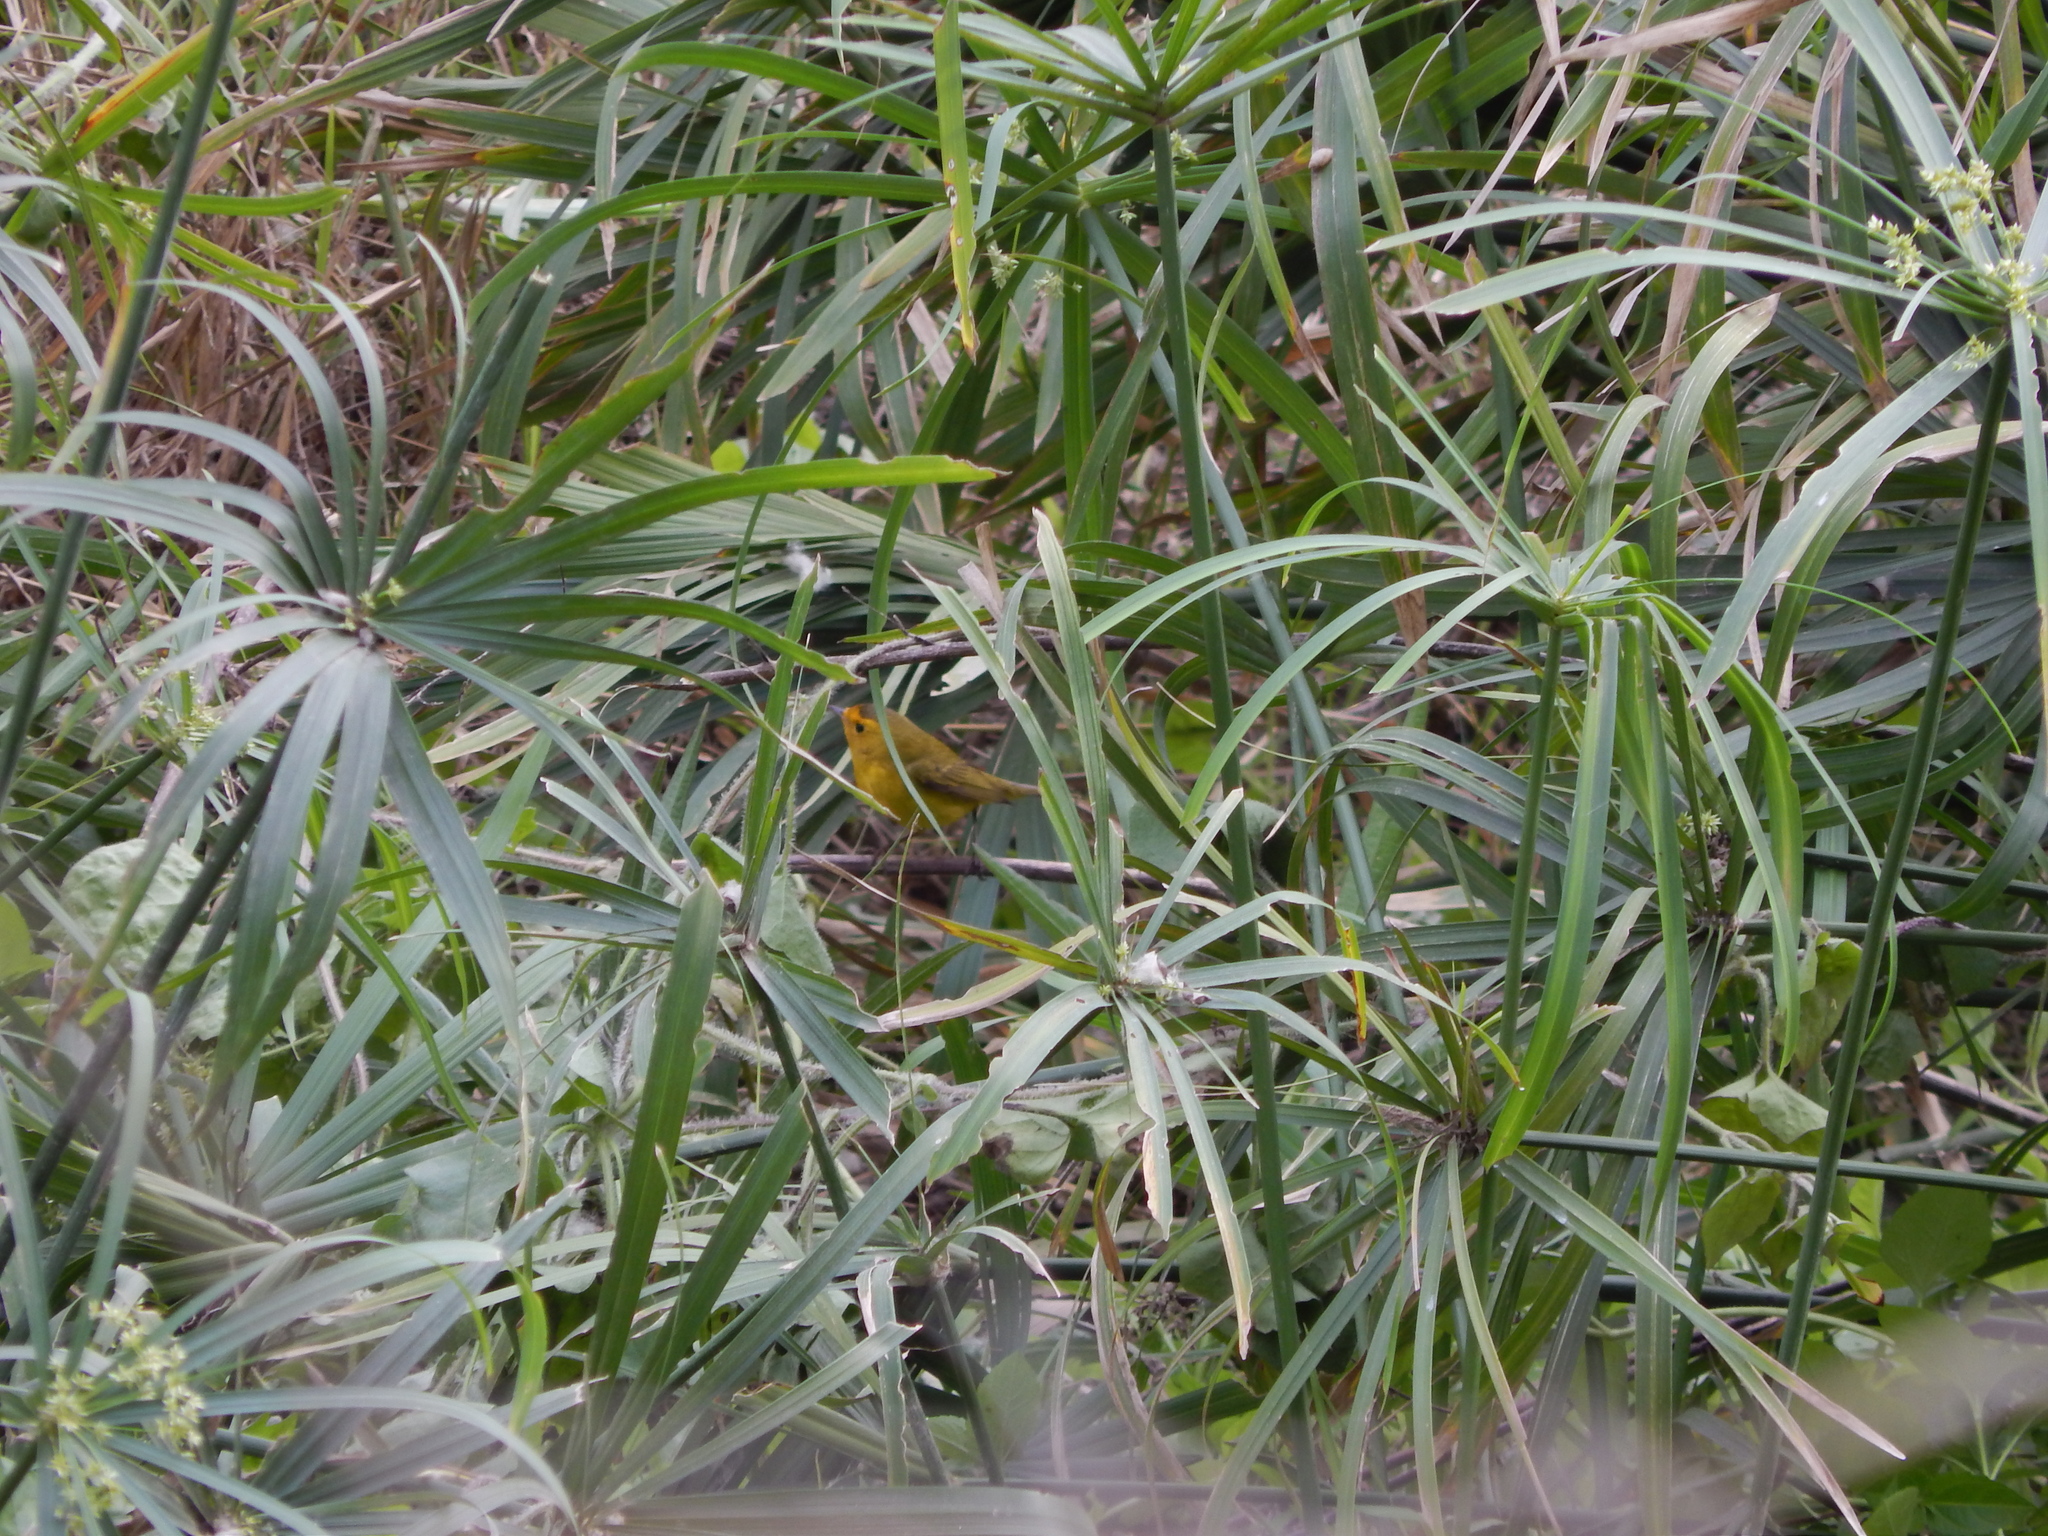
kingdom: Animalia
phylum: Chordata
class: Aves
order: Passeriformes
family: Parulidae
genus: Cardellina
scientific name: Cardellina pusilla
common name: Wilson's warbler
